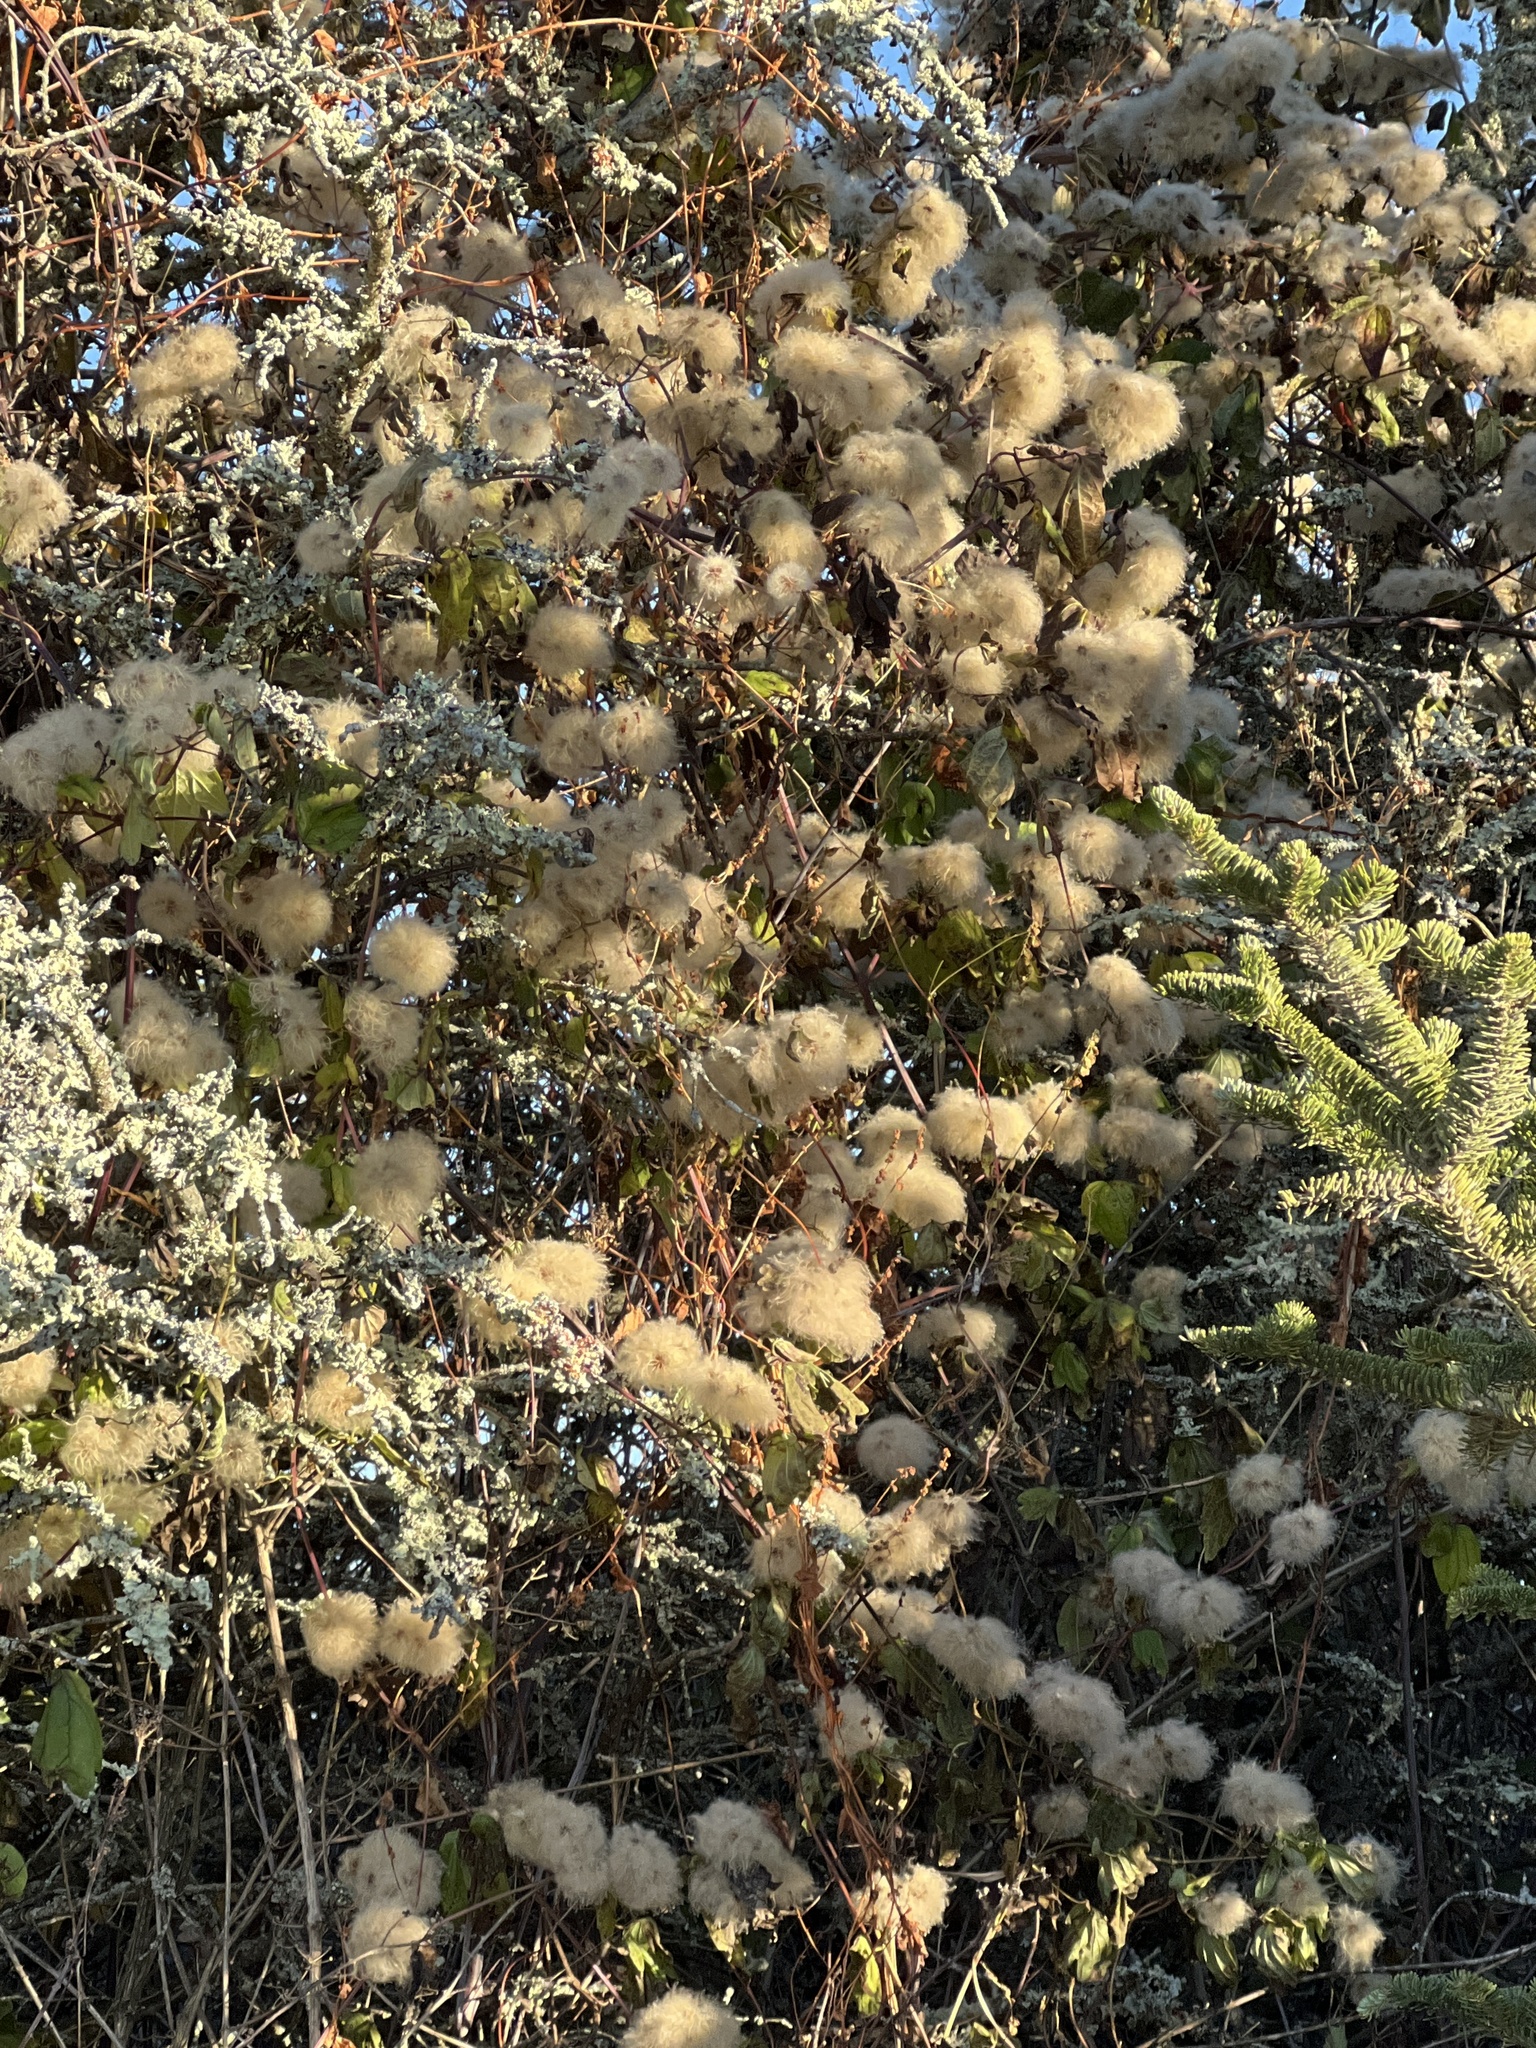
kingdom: Plantae
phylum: Tracheophyta
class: Magnoliopsida
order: Ranunculales
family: Ranunculaceae
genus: Clematis
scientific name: Clematis virginiana
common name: Virgin's-bower
